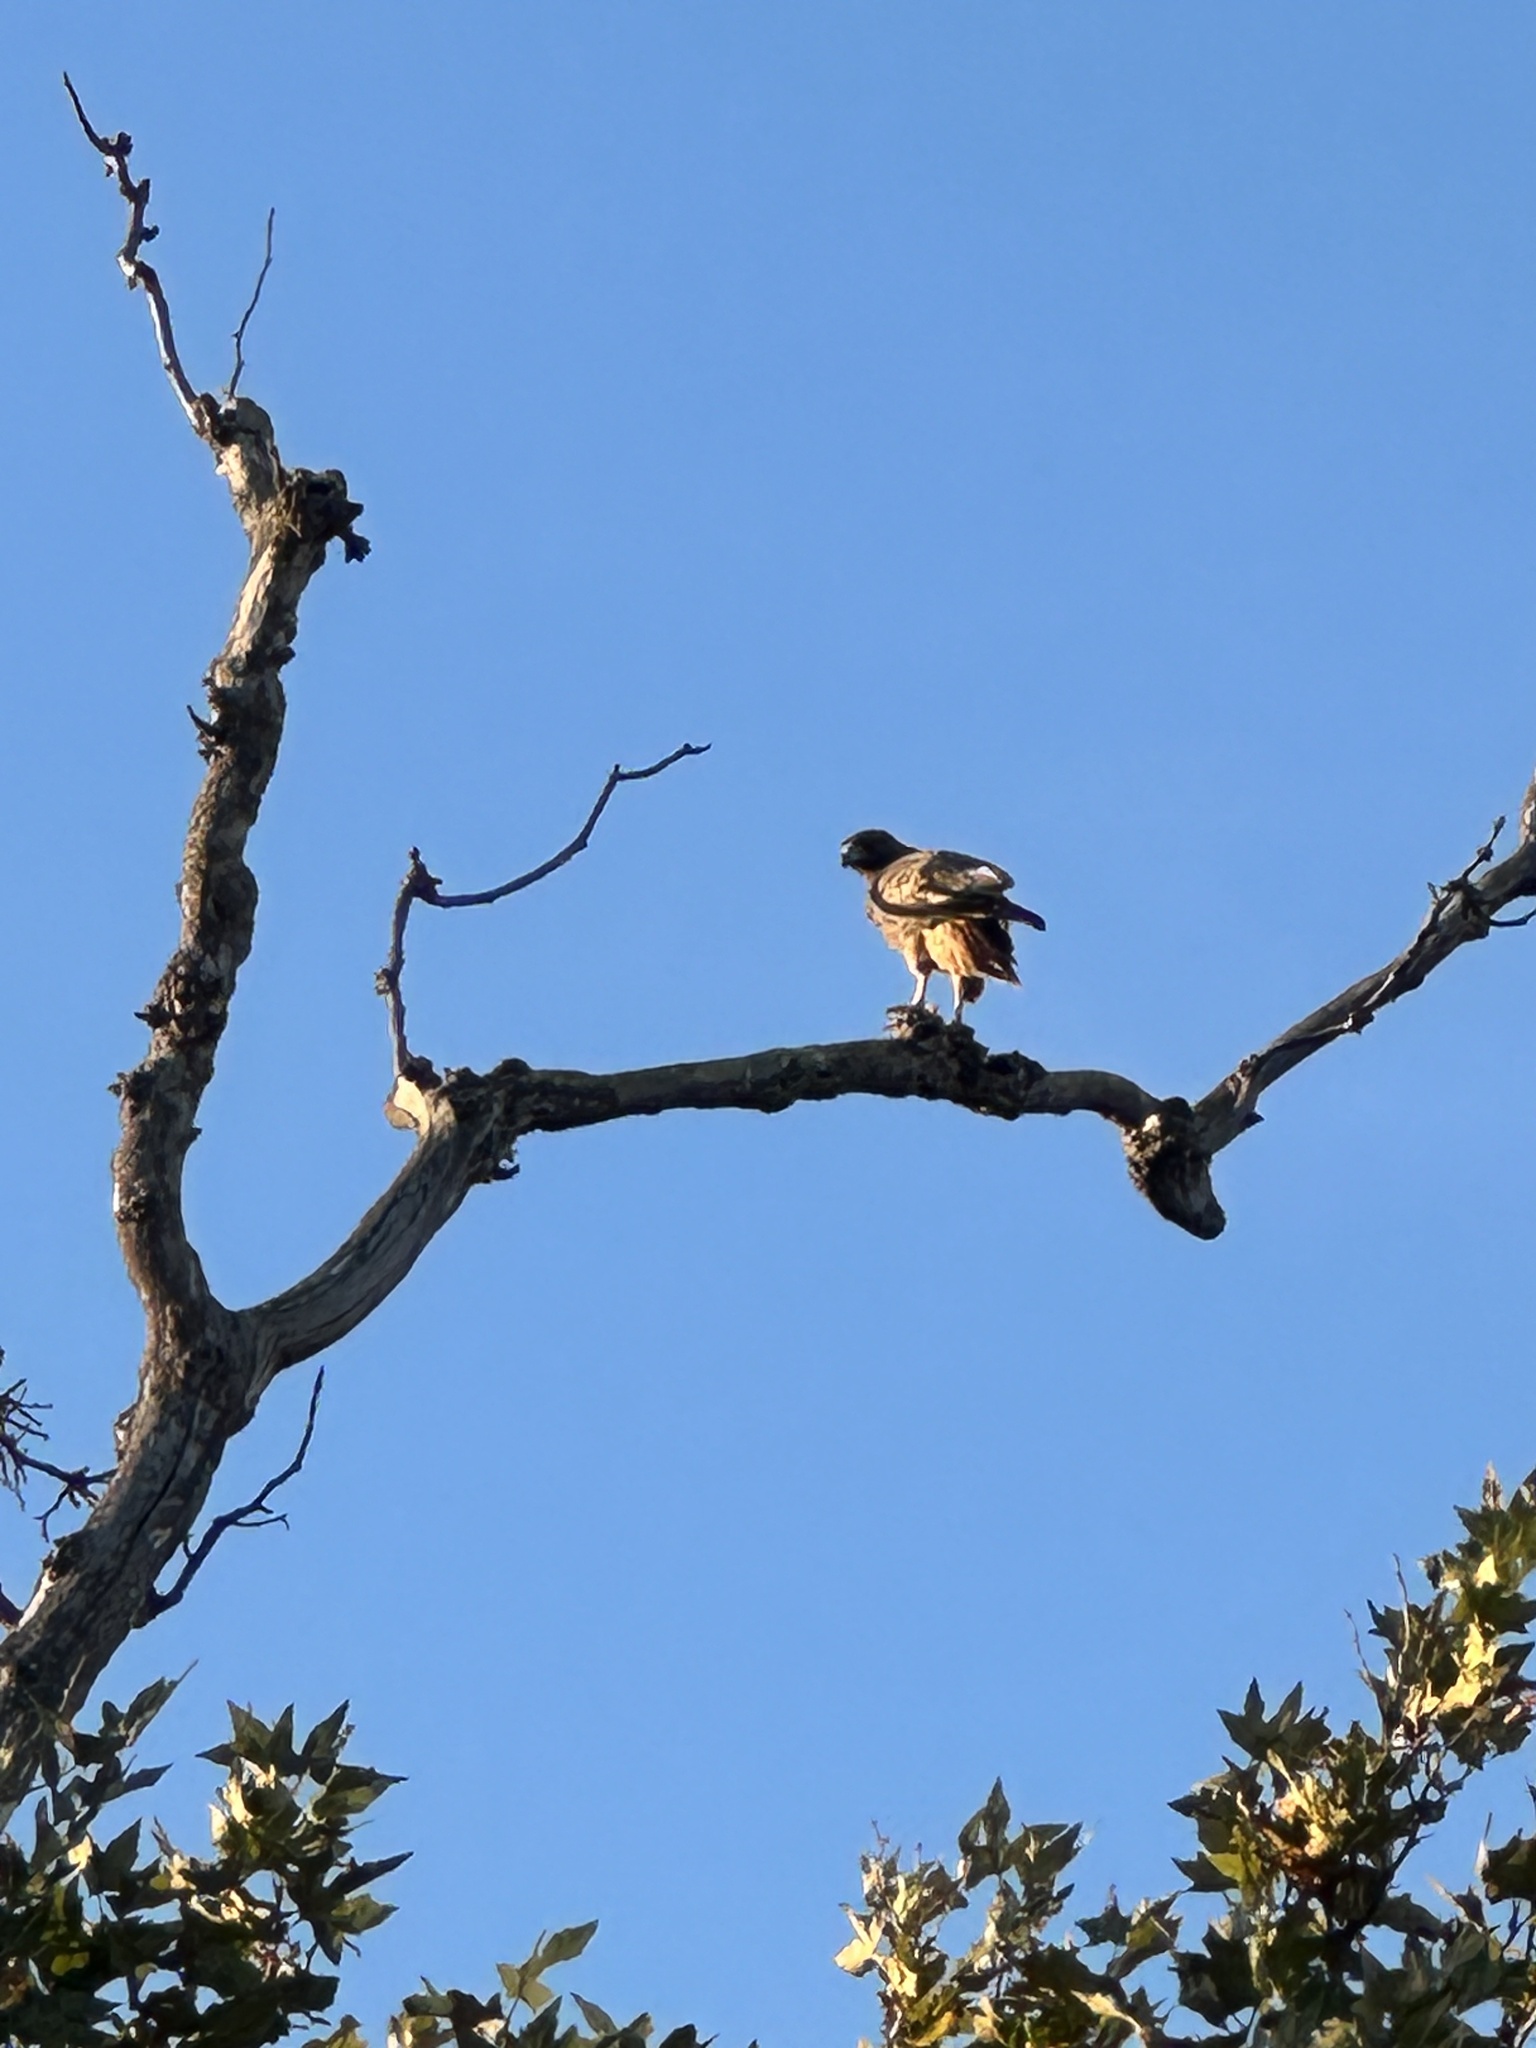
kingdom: Animalia
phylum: Chordata
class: Aves
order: Accipitriformes
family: Accipitridae
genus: Buteo
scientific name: Buteo jamaicensis
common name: Red-tailed hawk
